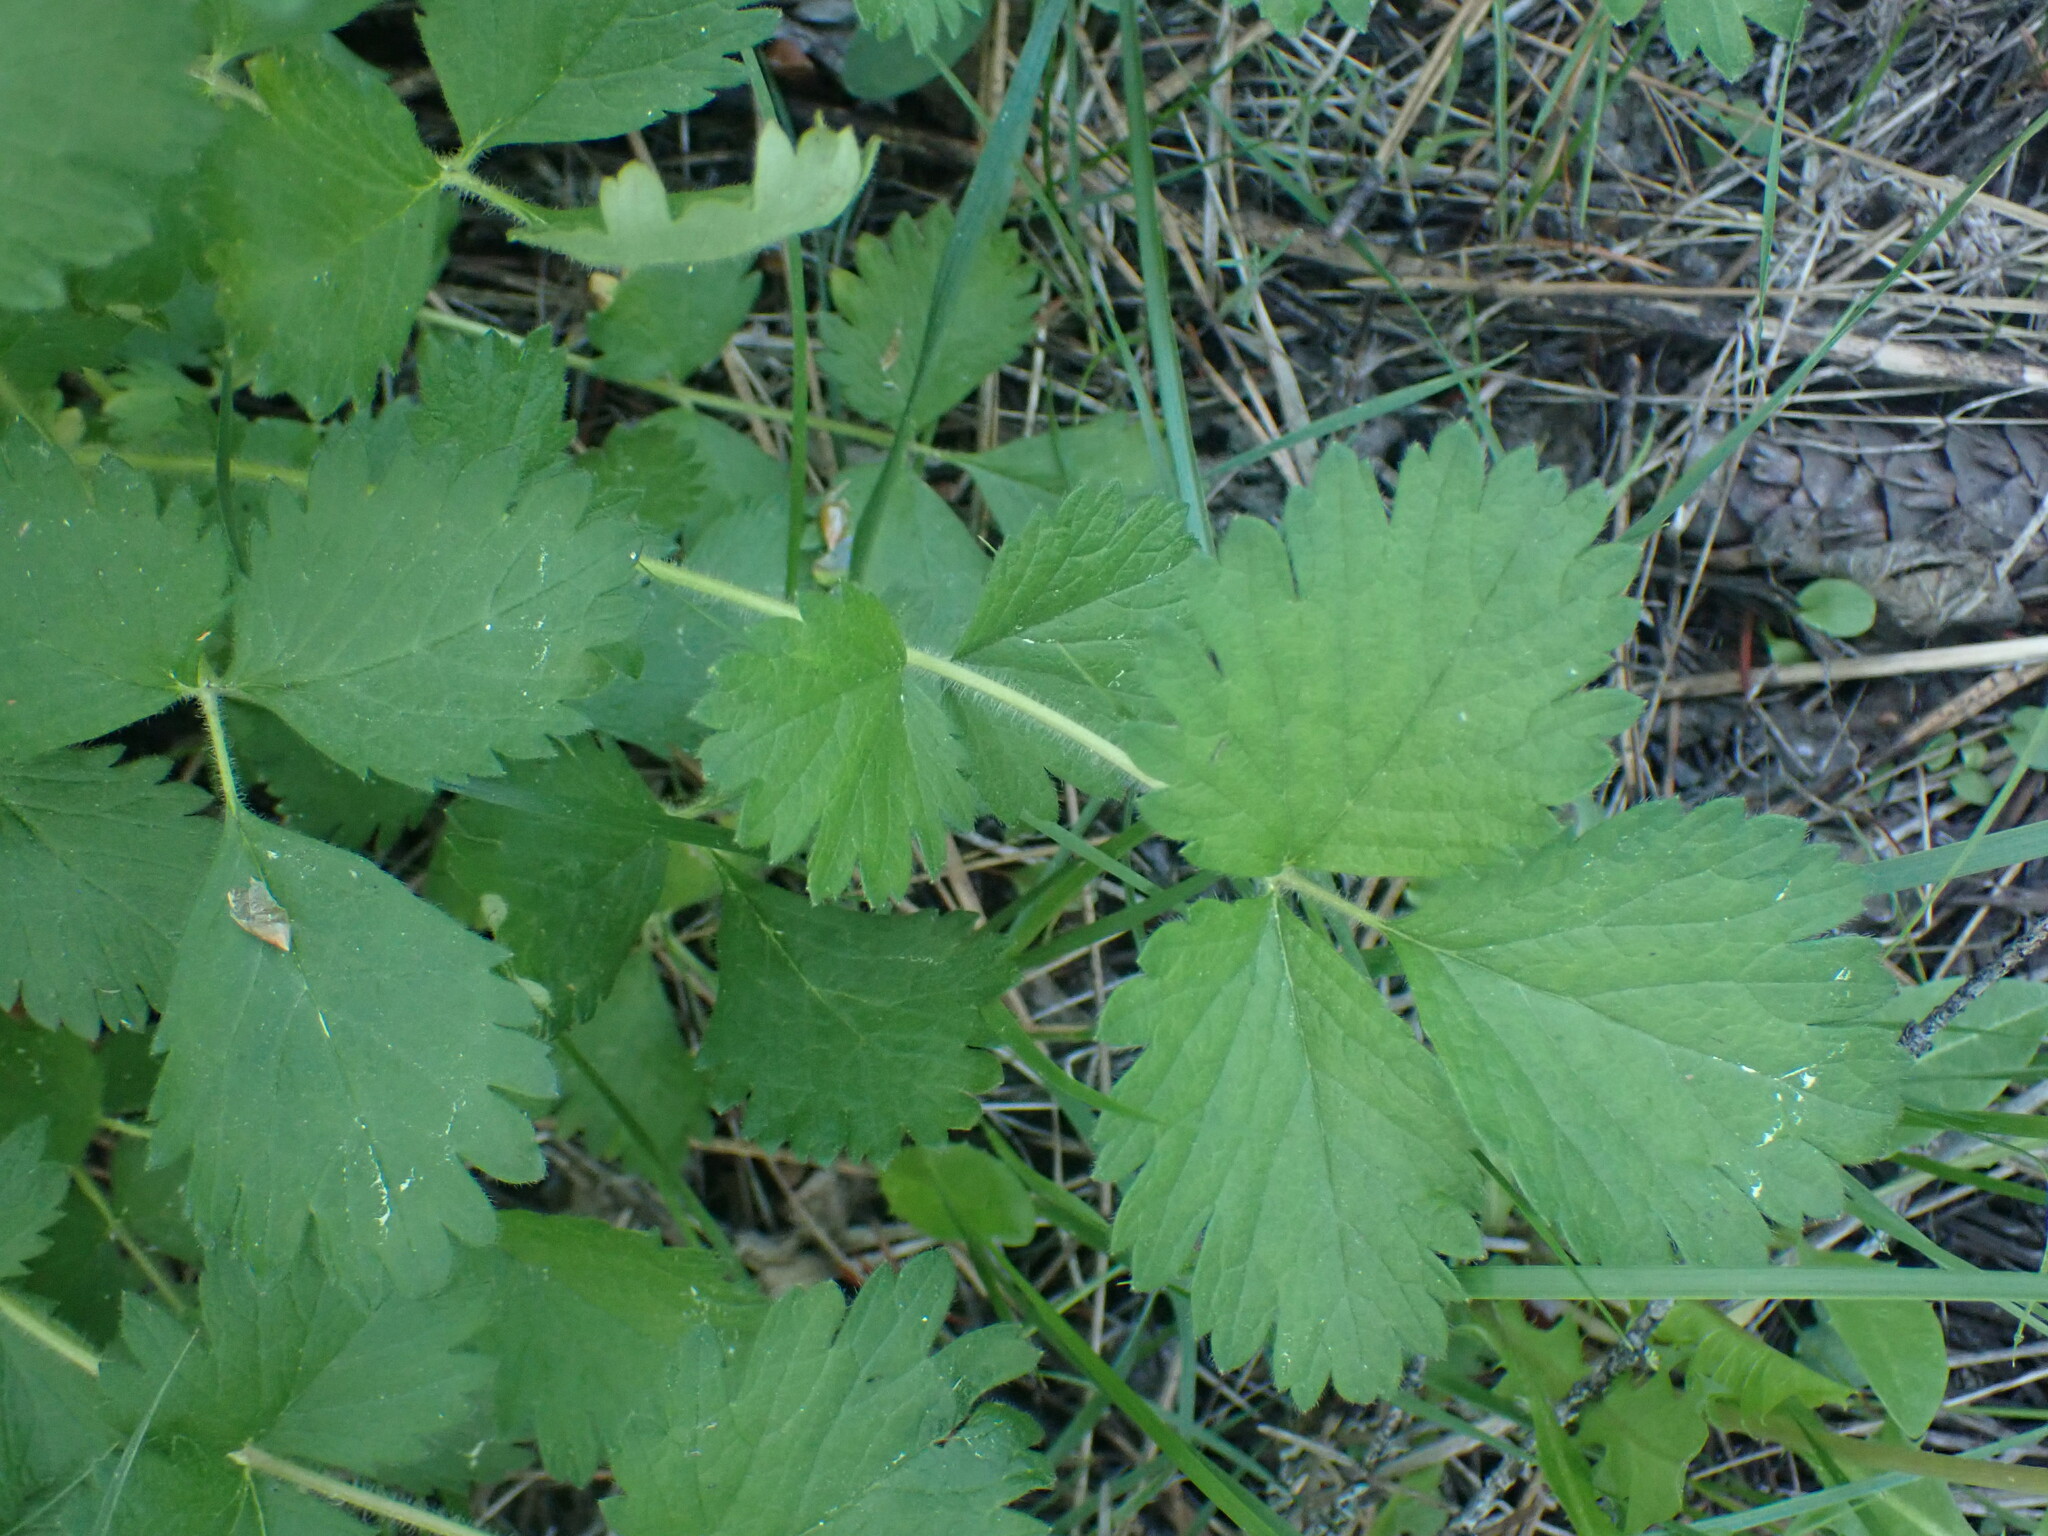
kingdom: Plantae
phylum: Tracheophyta
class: Magnoliopsida
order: Rosales
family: Rosaceae
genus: Drymocallis
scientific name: Drymocallis convallaria
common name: Cream cinquefoil
